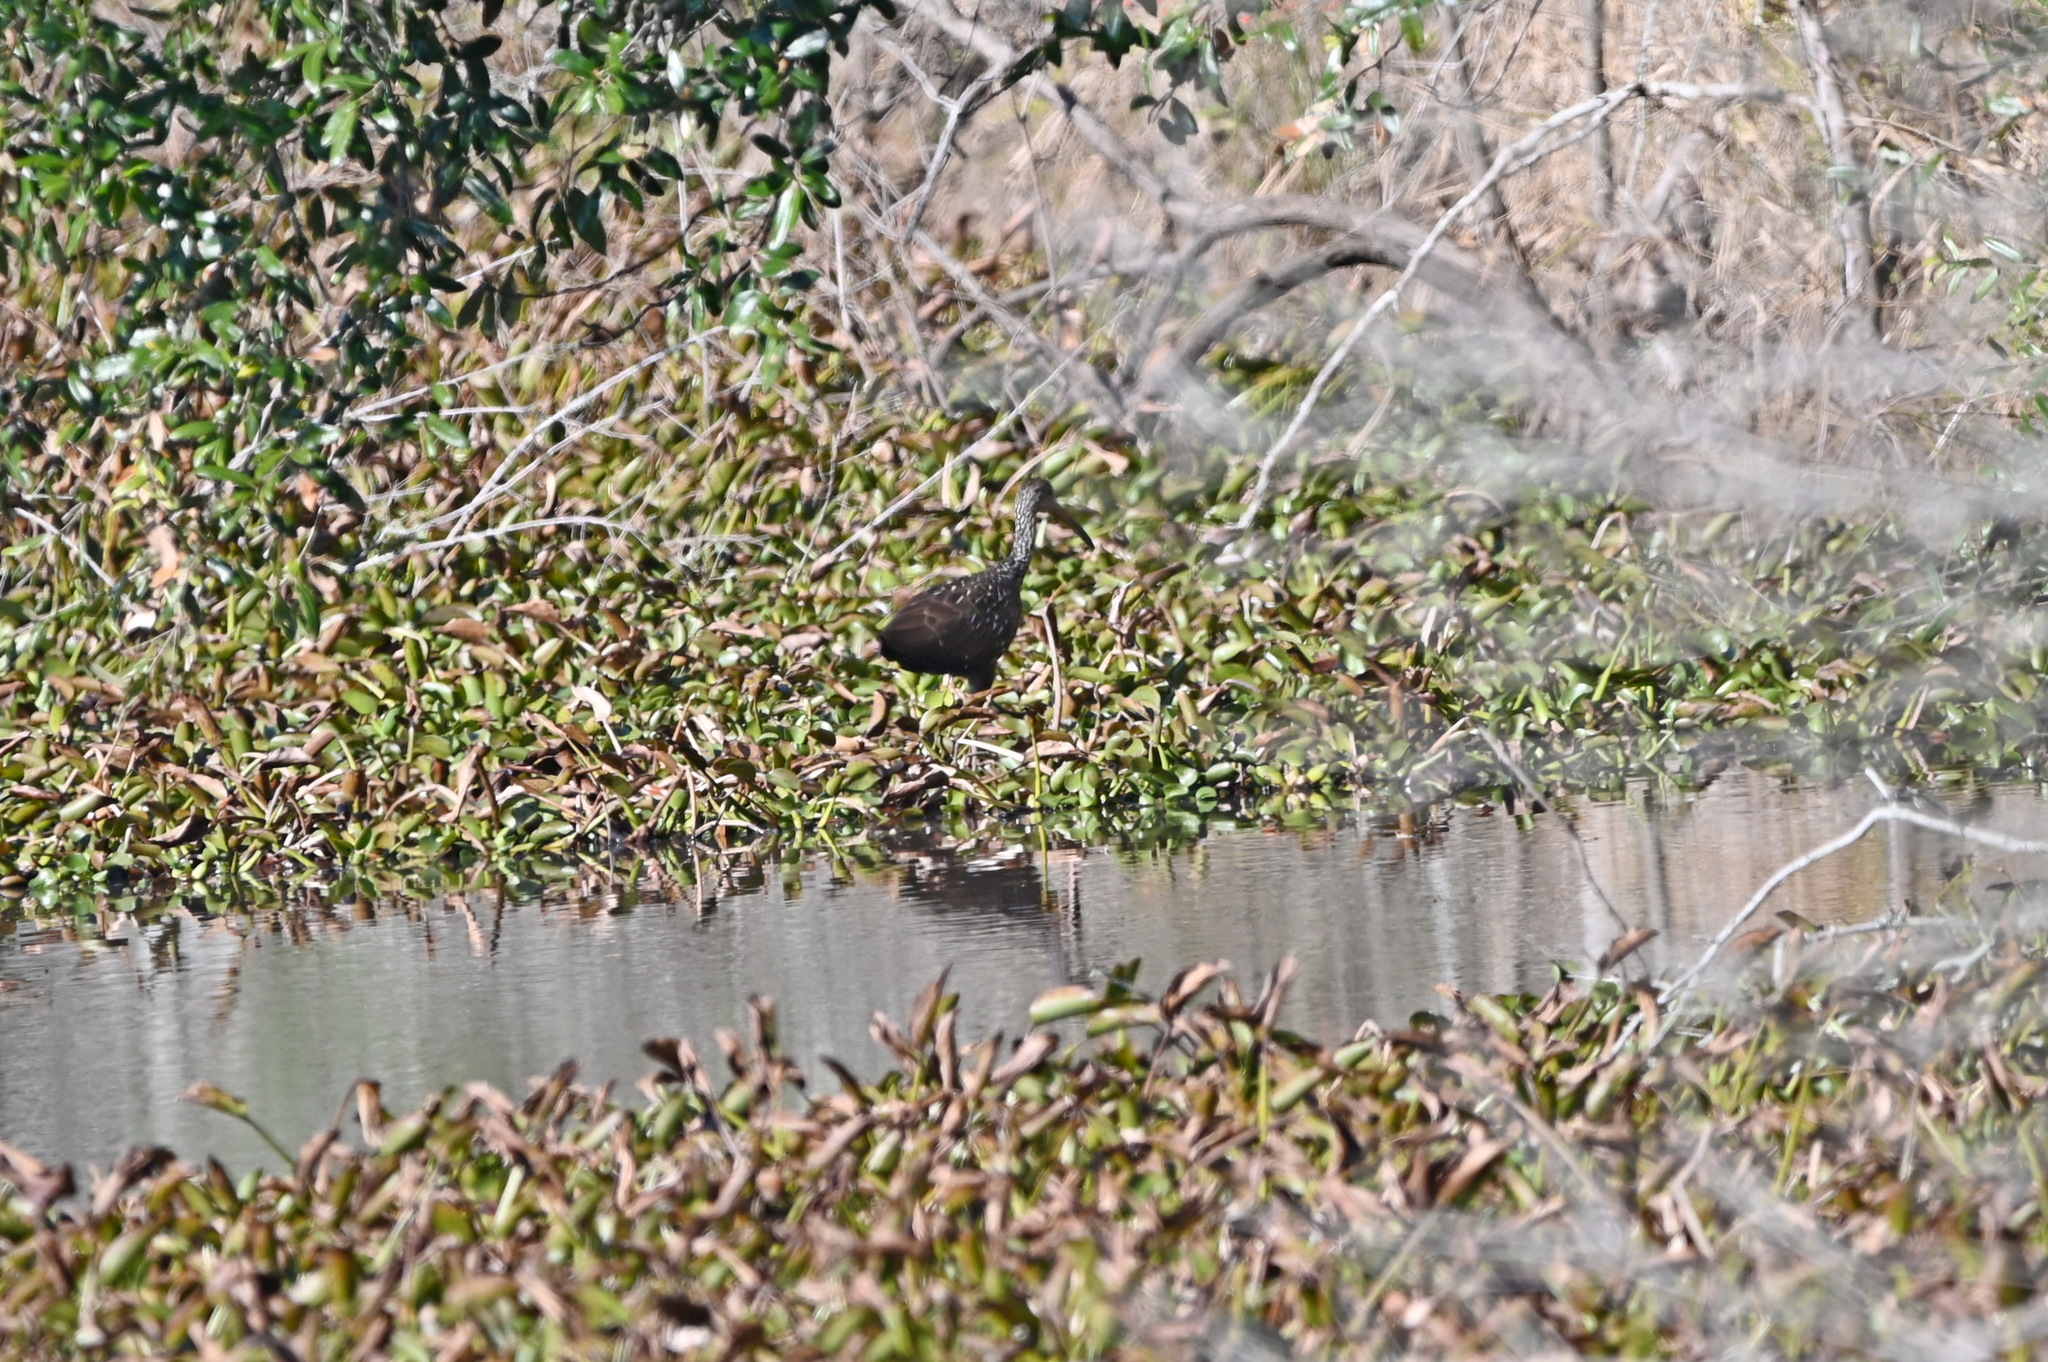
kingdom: Animalia
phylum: Chordata
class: Aves
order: Gruiformes
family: Aramidae
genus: Aramus
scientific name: Aramus guarauna
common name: Limpkin
